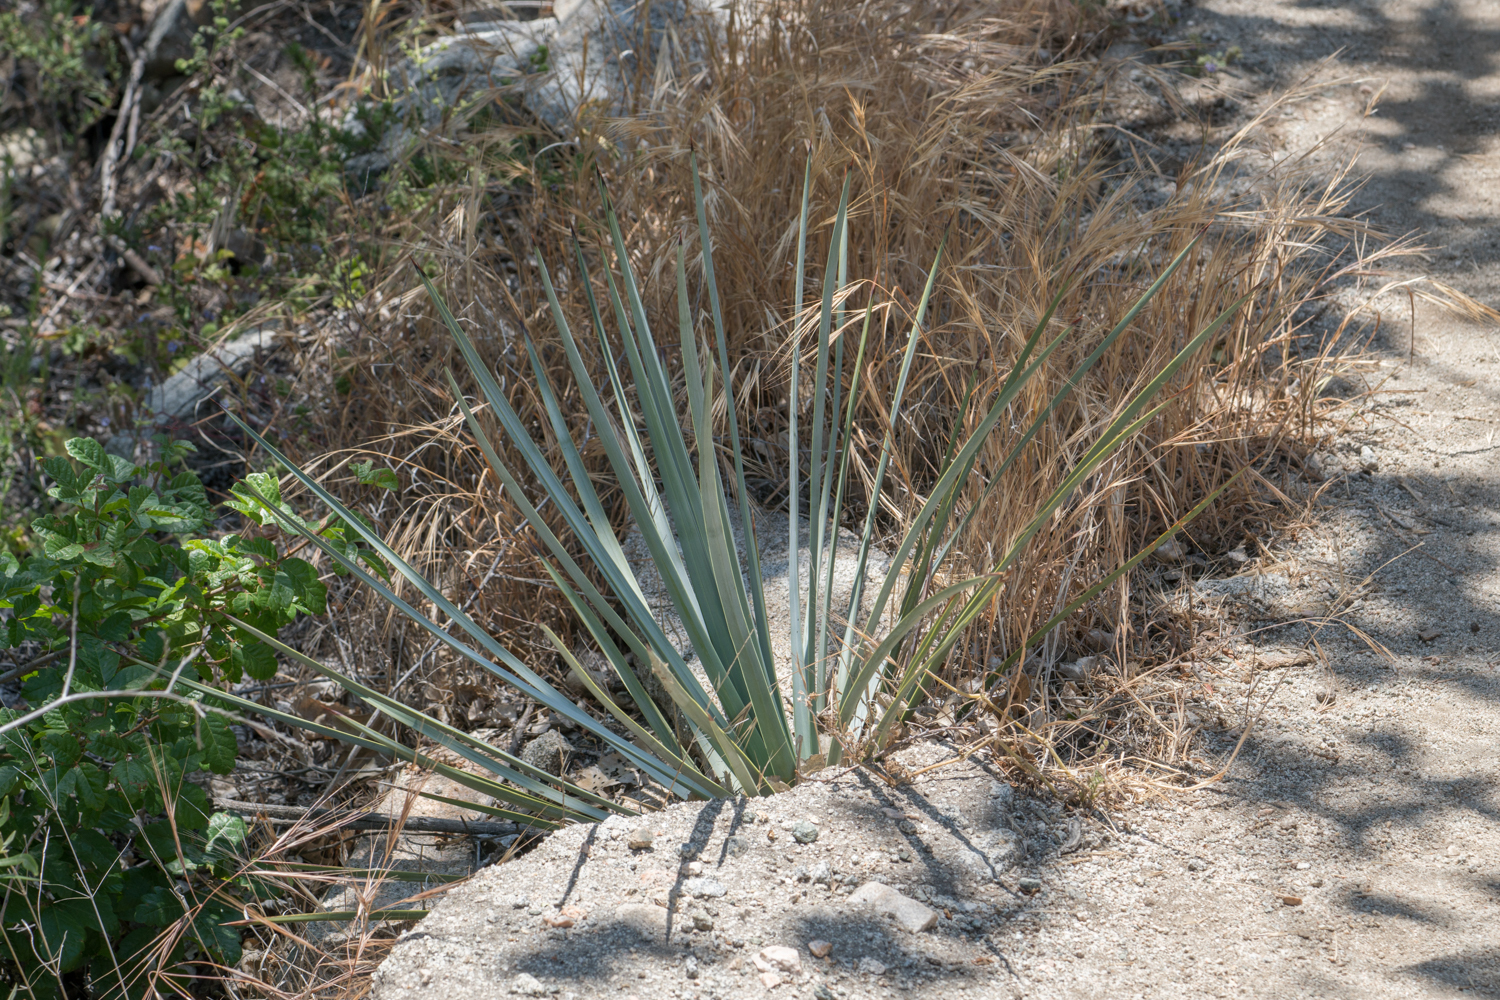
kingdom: Plantae
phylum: Tracheophyta
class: Liliopsida
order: Asparagales
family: Asparagaceae
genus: Hesperoyucca
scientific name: Hesperoyucca whipplei
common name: Our lord's-candle
